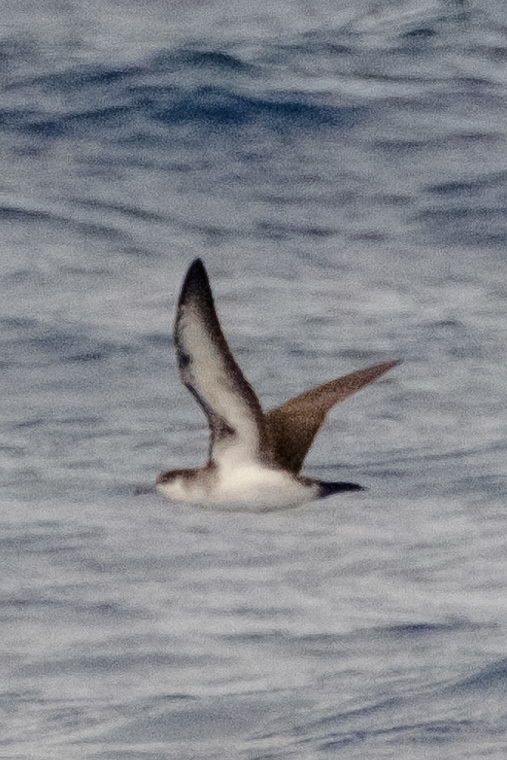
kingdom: Animalia
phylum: Chordata
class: Aves
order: Procellariiformes
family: Procellariidae
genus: Puffinus
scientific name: Puffinus lherminieri
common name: Audubon's shearwater
